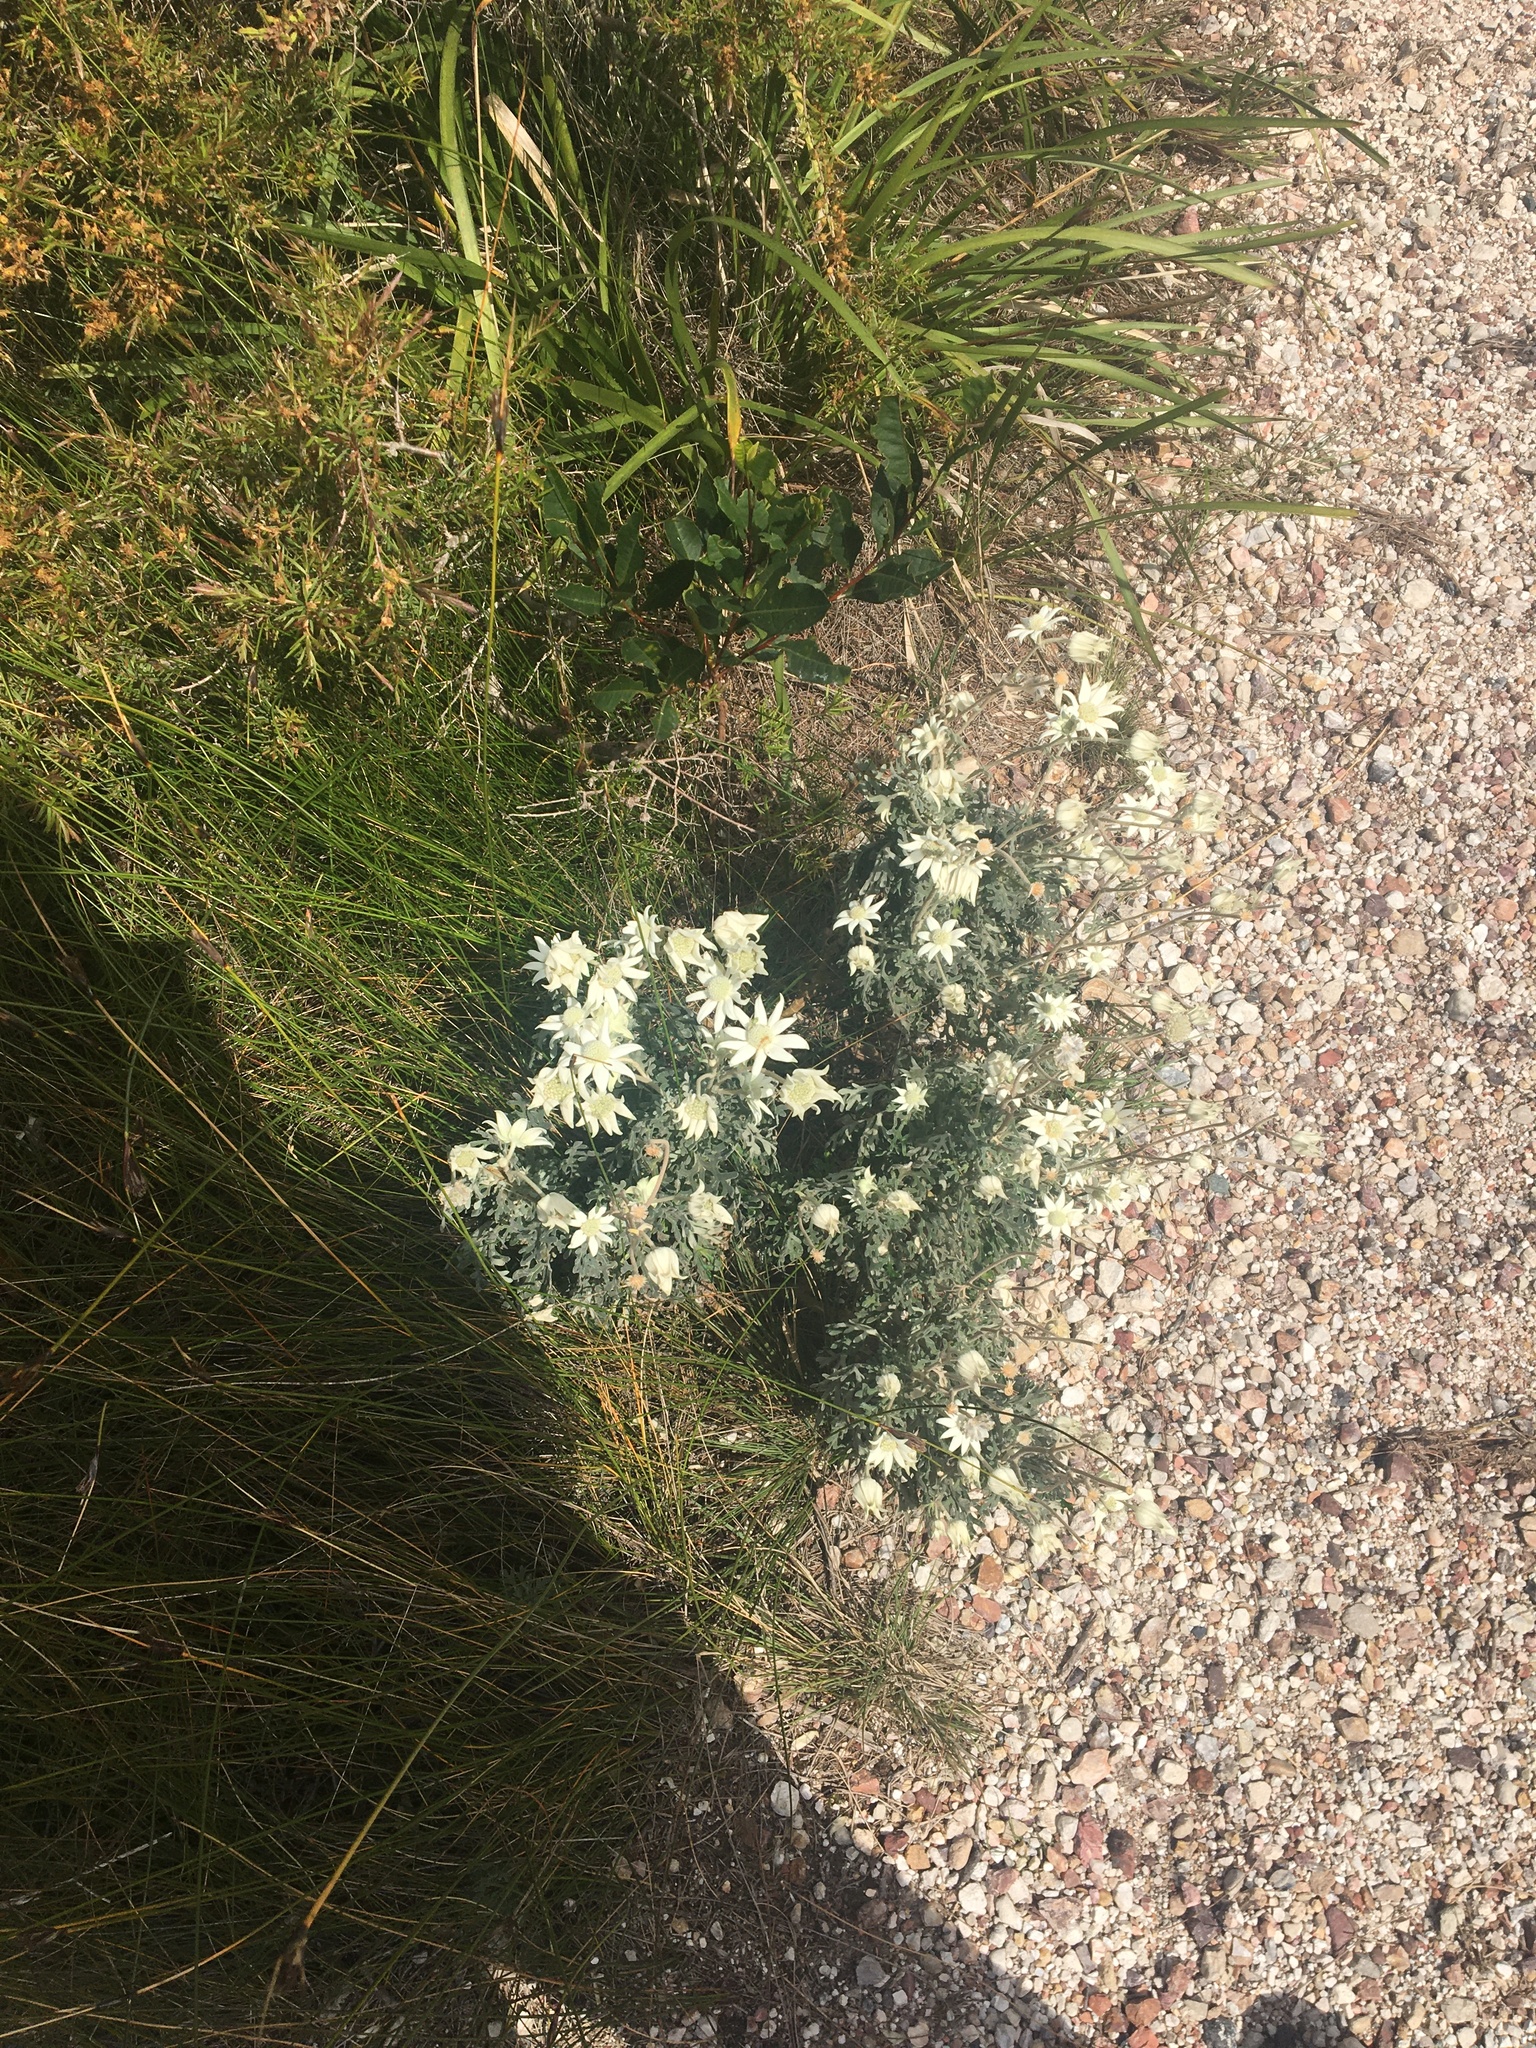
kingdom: Plantae
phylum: Tracheophyta
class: Magnoliopsida
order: Apiales
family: Apiaceae
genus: Actinotus
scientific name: Actinotus helianthi
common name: Flannel-flower
